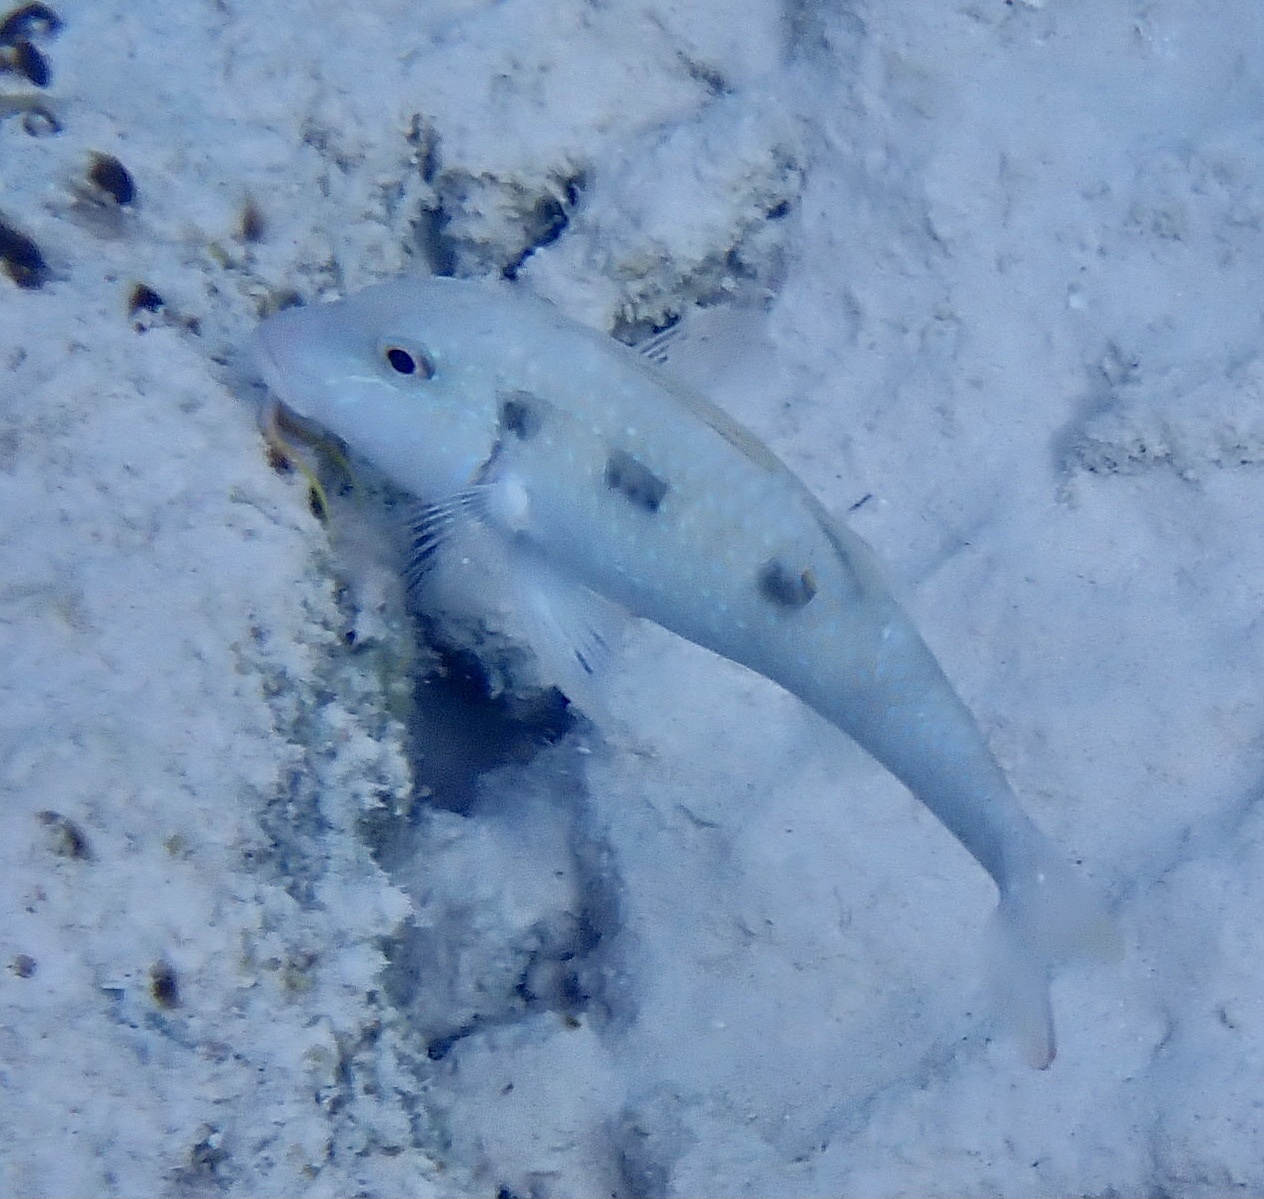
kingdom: Animalia
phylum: Chordata
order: Perciformes
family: Mullidae
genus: Pseudupeneus
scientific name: Pseudupeneus maculatus
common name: Spotted goatfish
